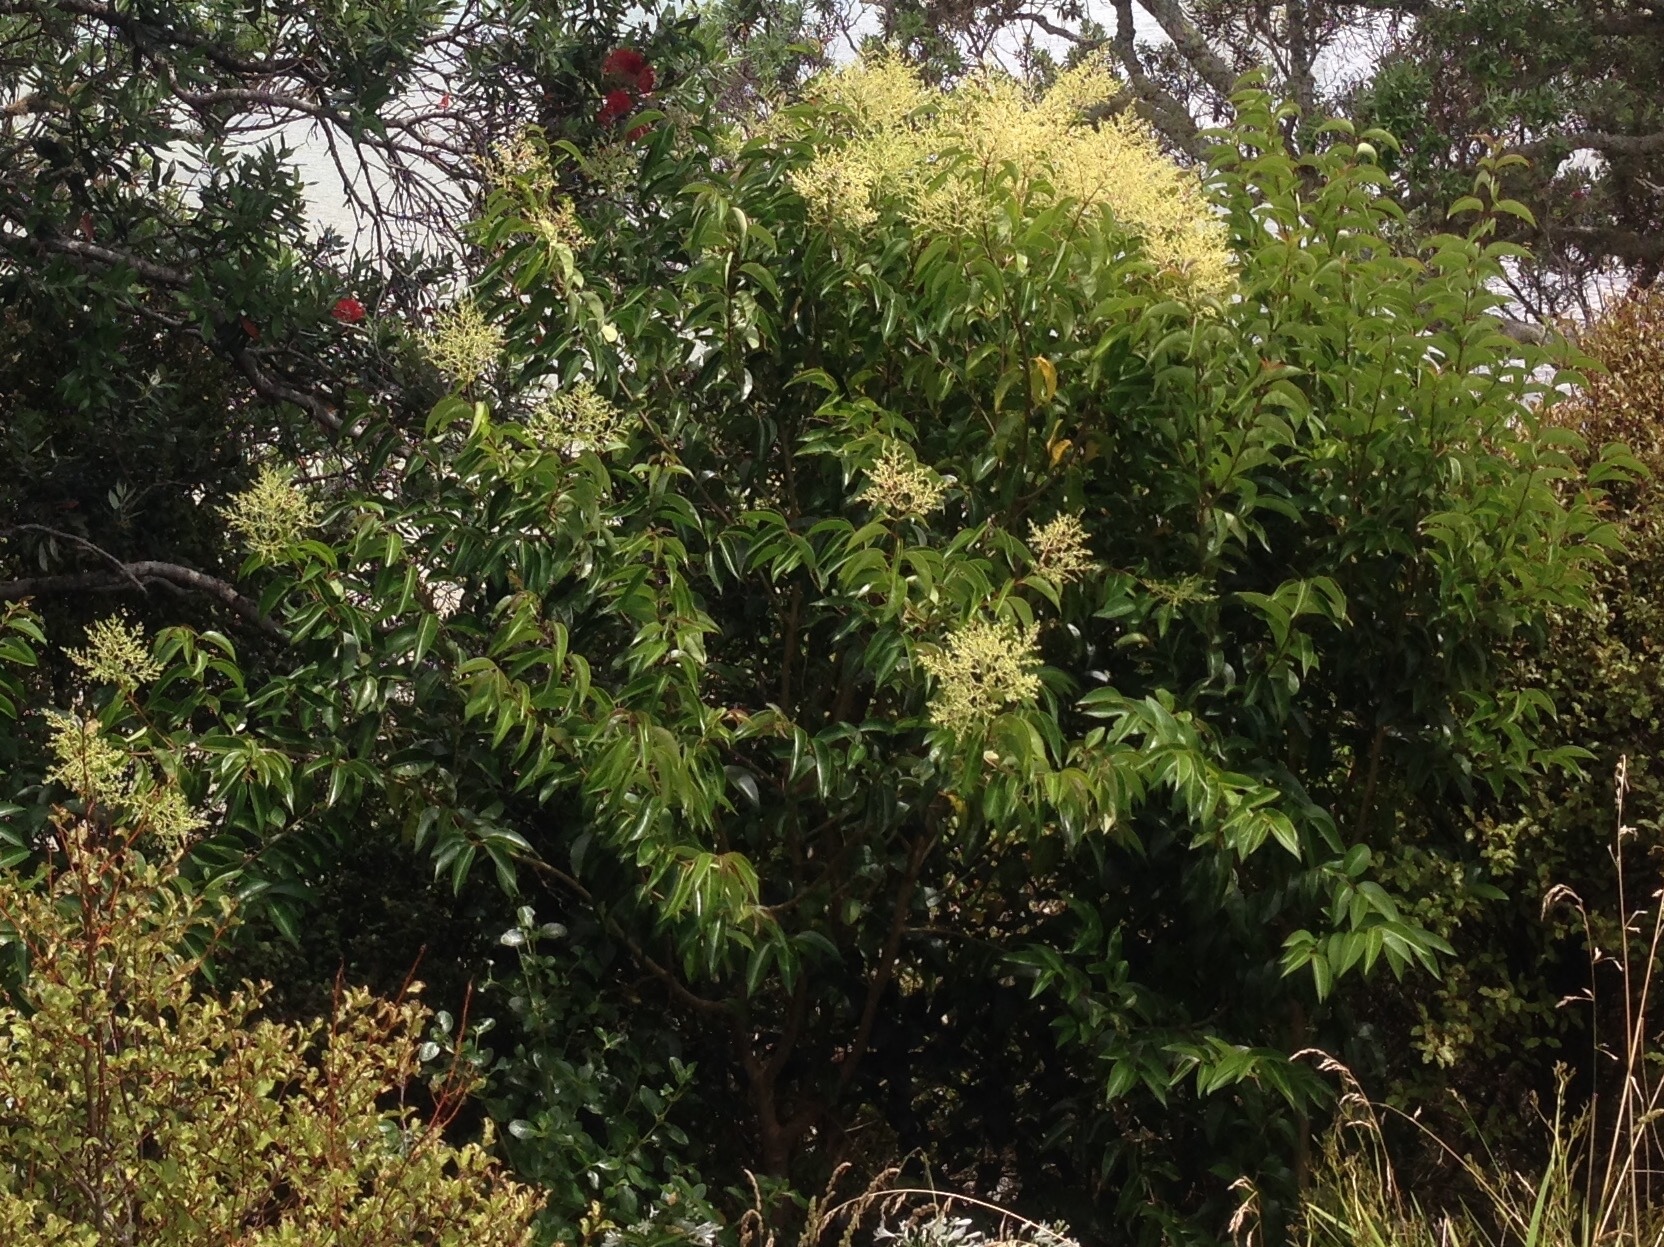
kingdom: Plantae
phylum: Tracheophyta
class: Magnoliopsida
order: Lamiales
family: Oleaceae
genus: Ligustrum
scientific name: Ligustrum lucidum
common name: Glossy privet
